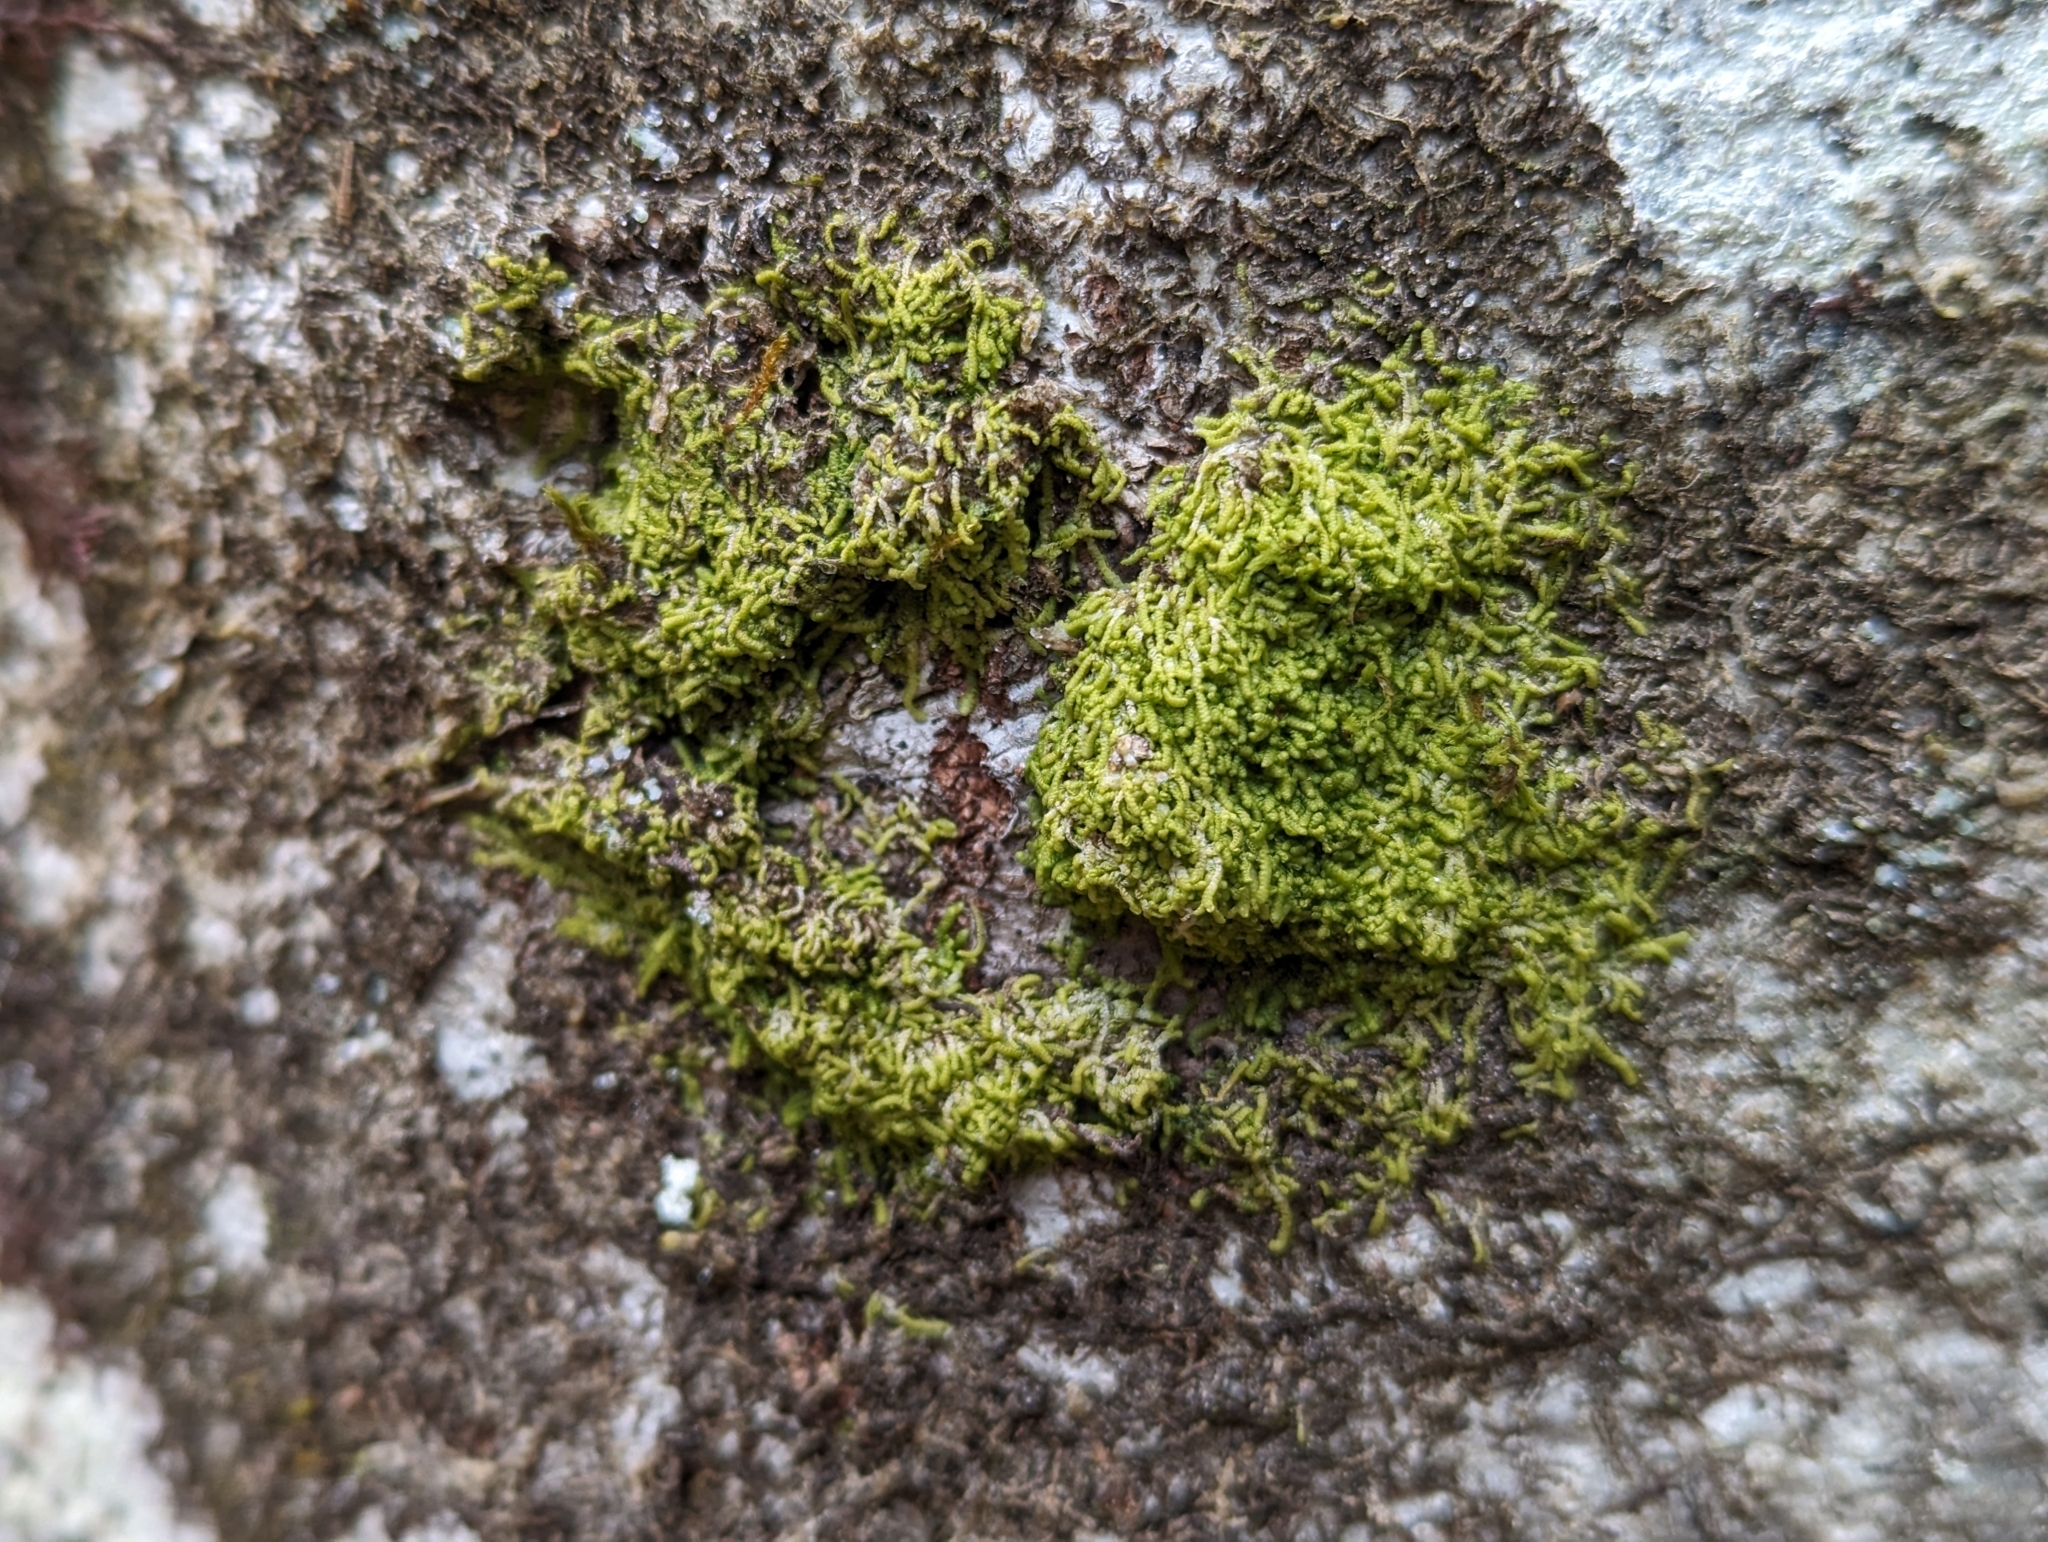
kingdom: Plantae
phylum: Marchantiophyta
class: Jungermanniopsida
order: Porellales
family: Lejeuneaceae
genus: Lejeunea
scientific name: Lejeunea cavifolia
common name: Least pouncewort
